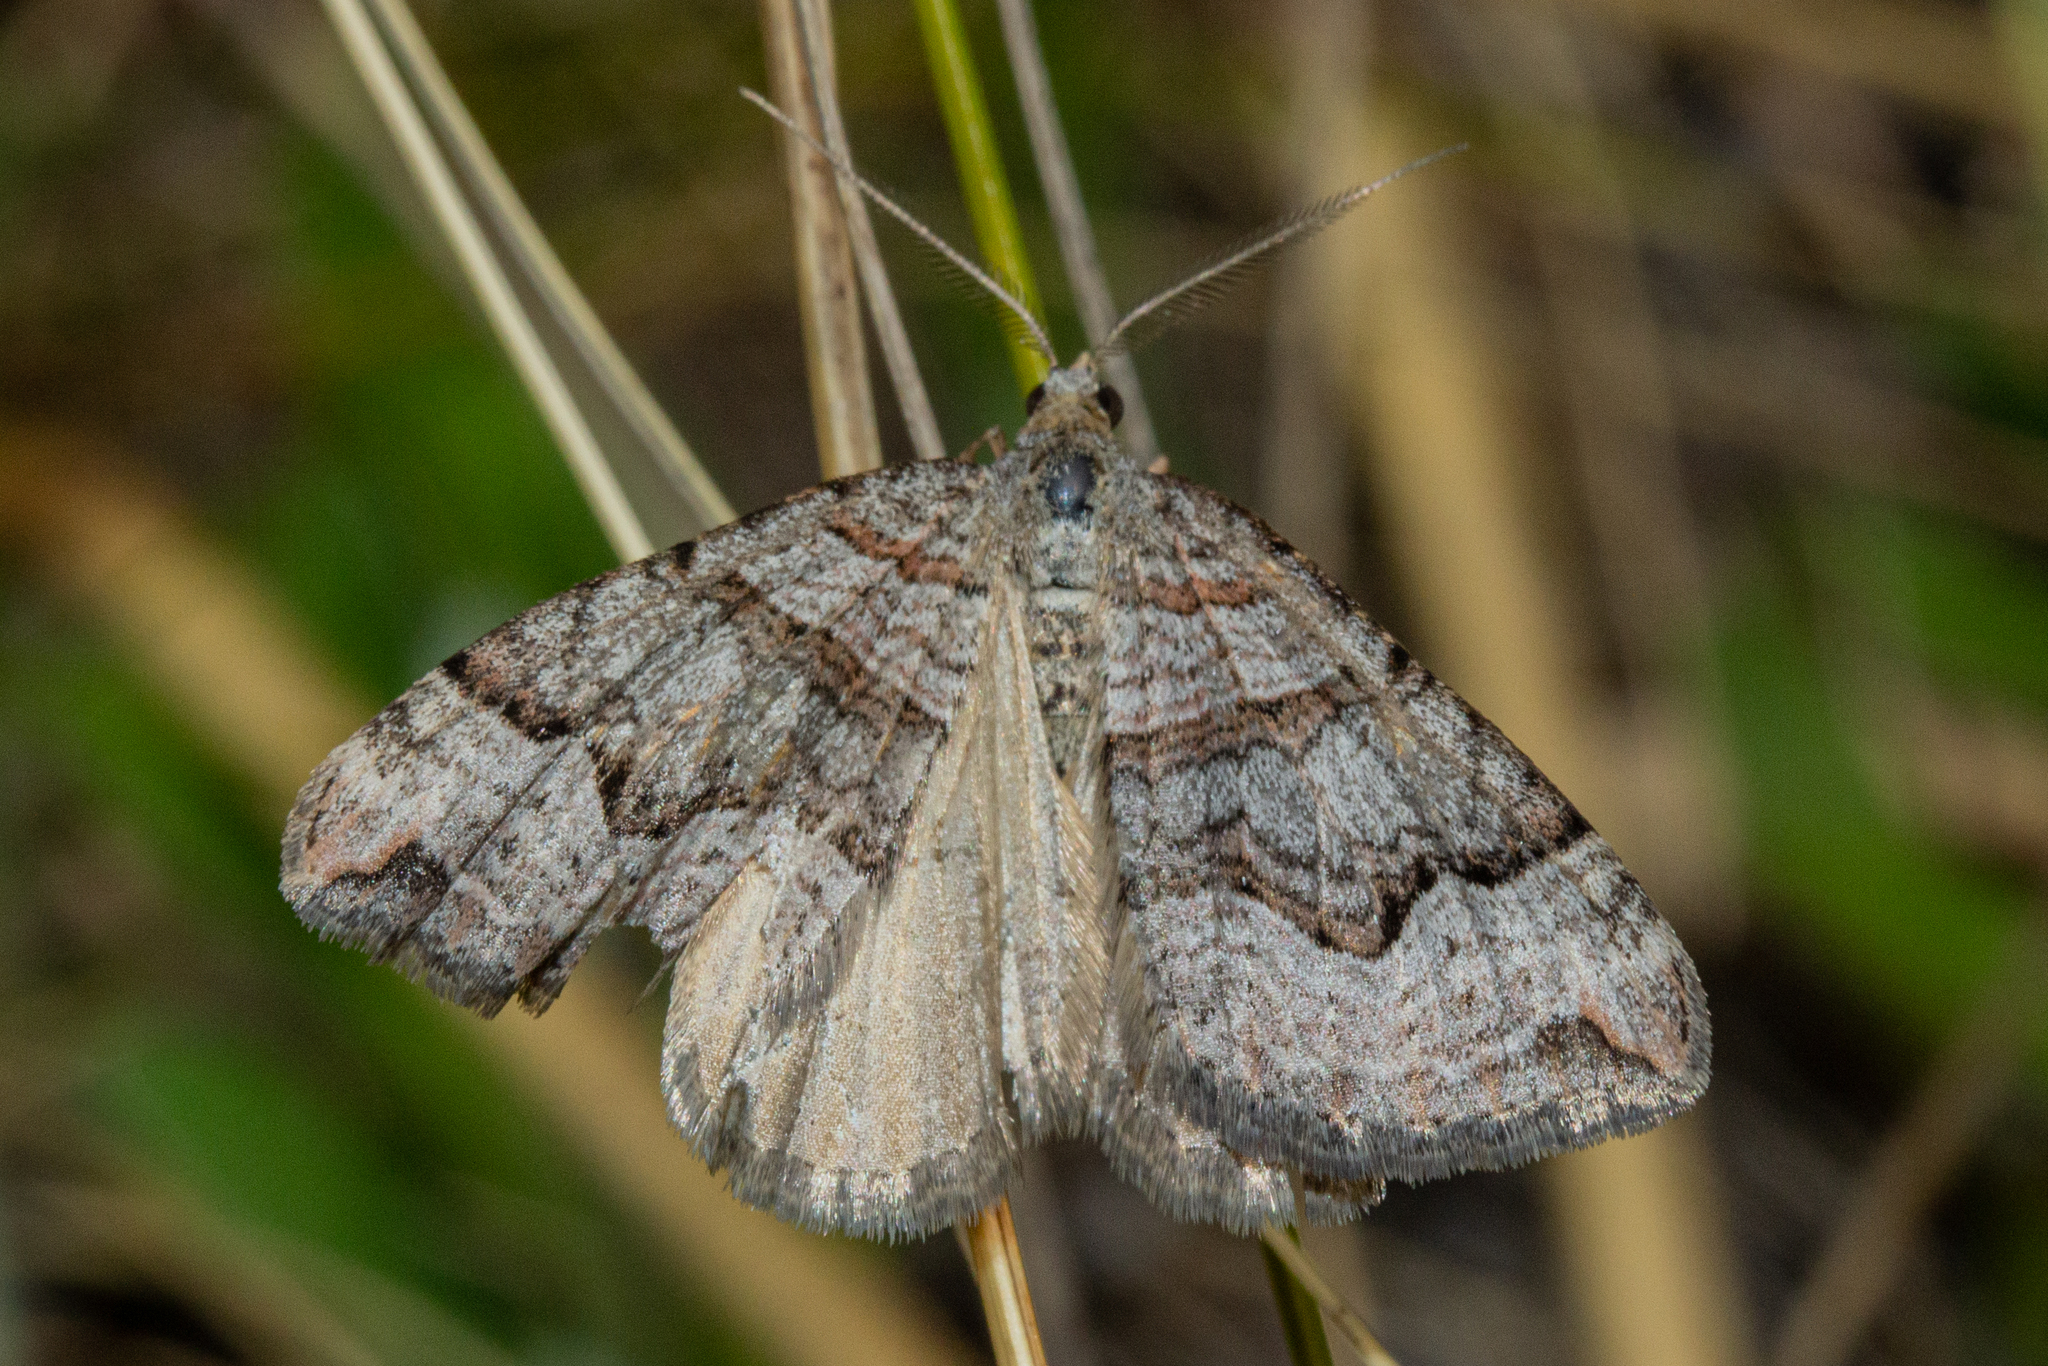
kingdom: Animalia
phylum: Arthropoda
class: Insecta
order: Lepidoptera
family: Geometridae
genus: Xanthorhoe
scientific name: Xanthorhoe orophylla
